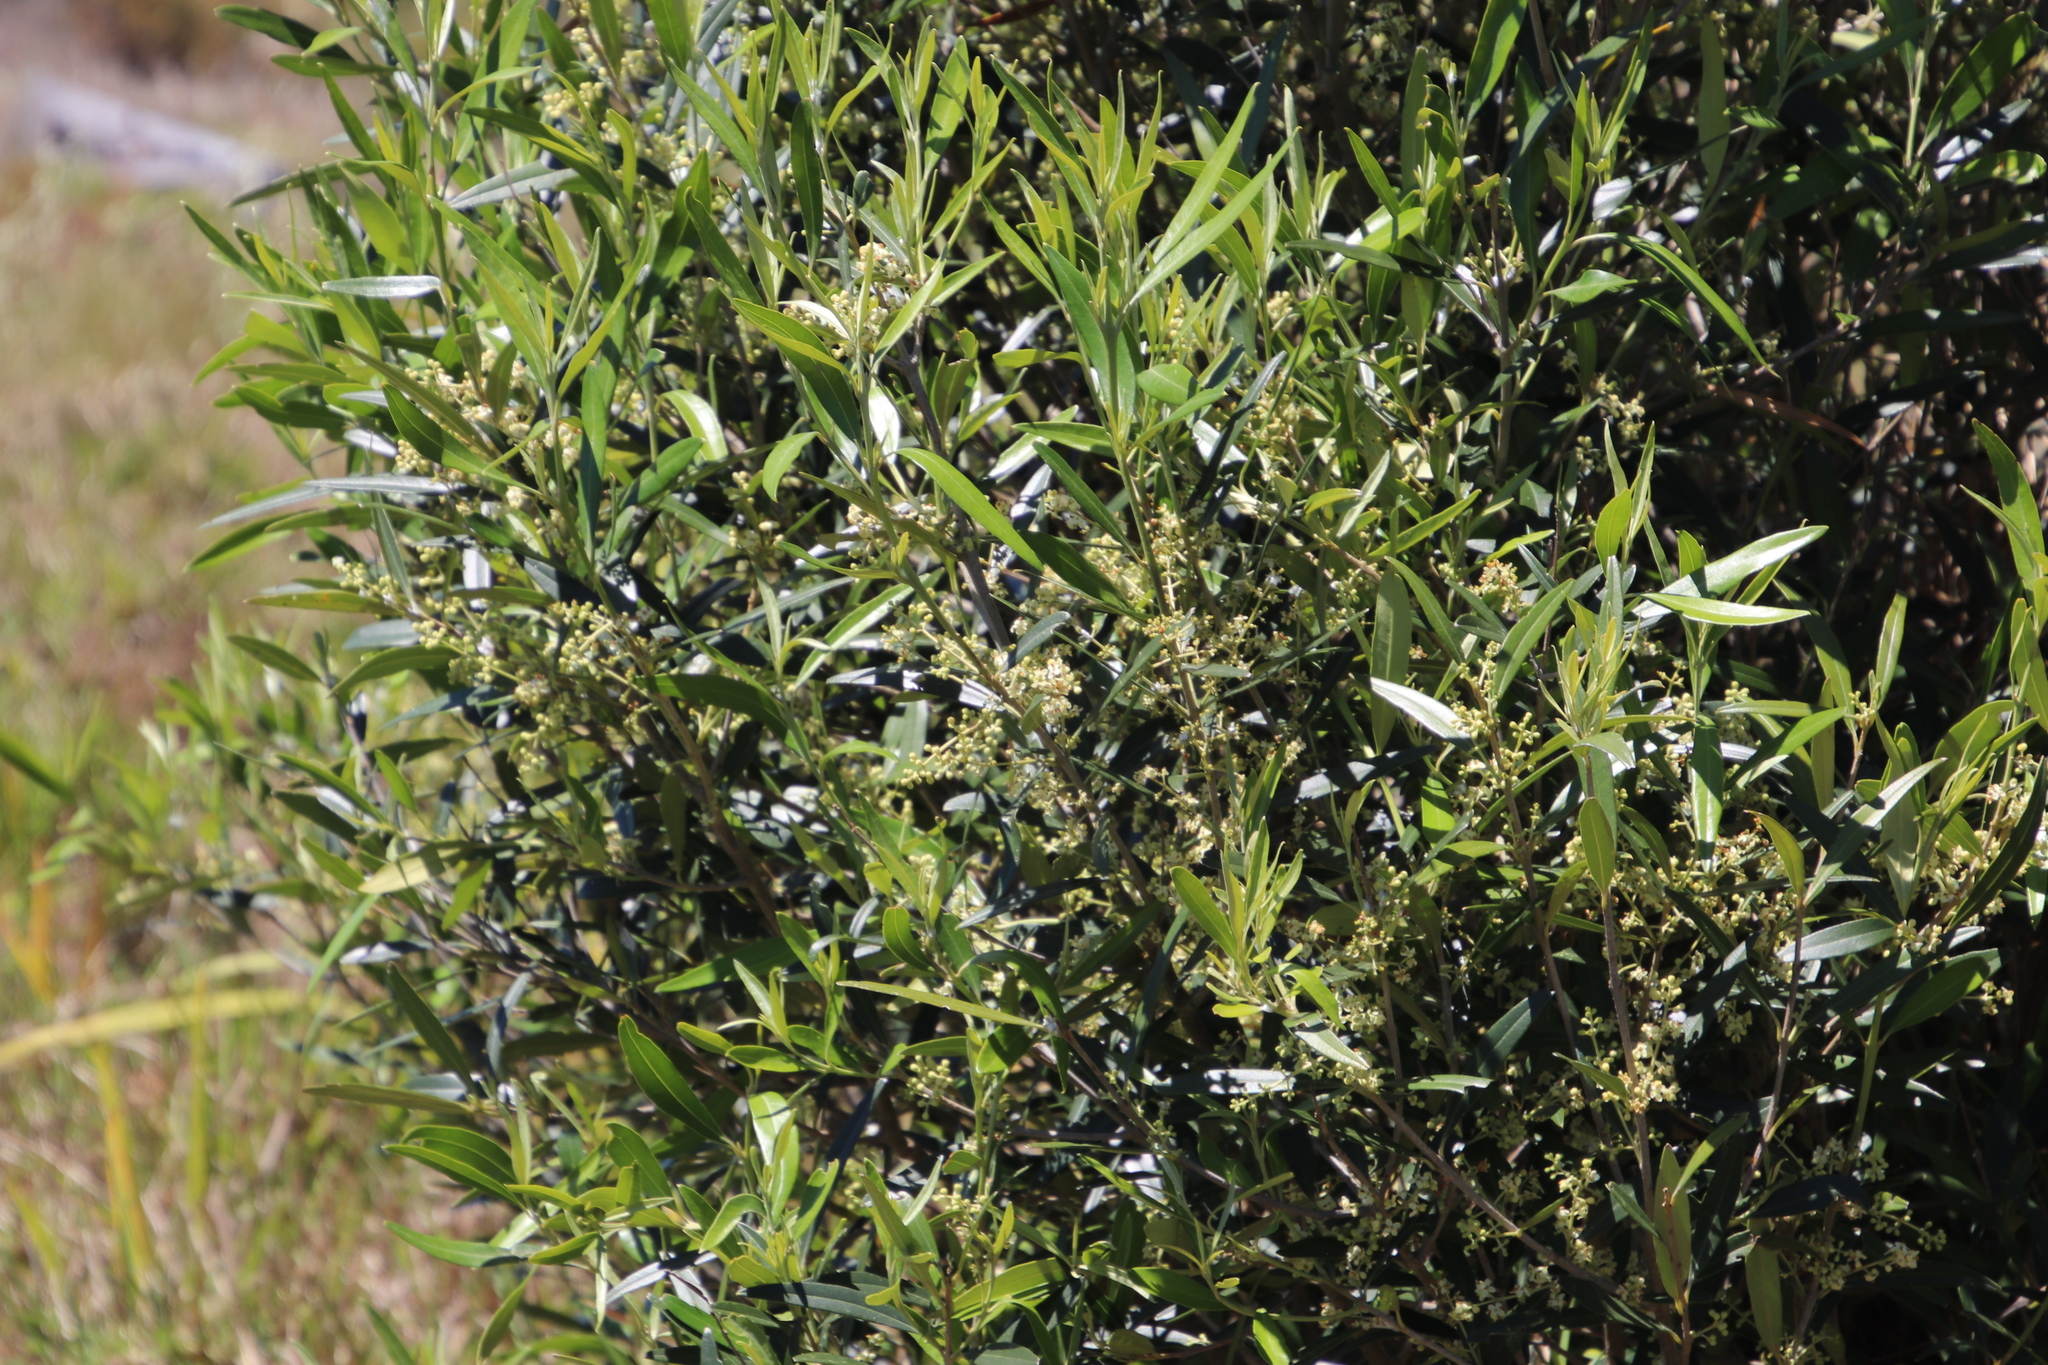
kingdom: Plantae
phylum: Tracheophyta
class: Magnoliopsida
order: Lamiales
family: Oleaceae
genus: Olea
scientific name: Olea europaea
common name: Olive
